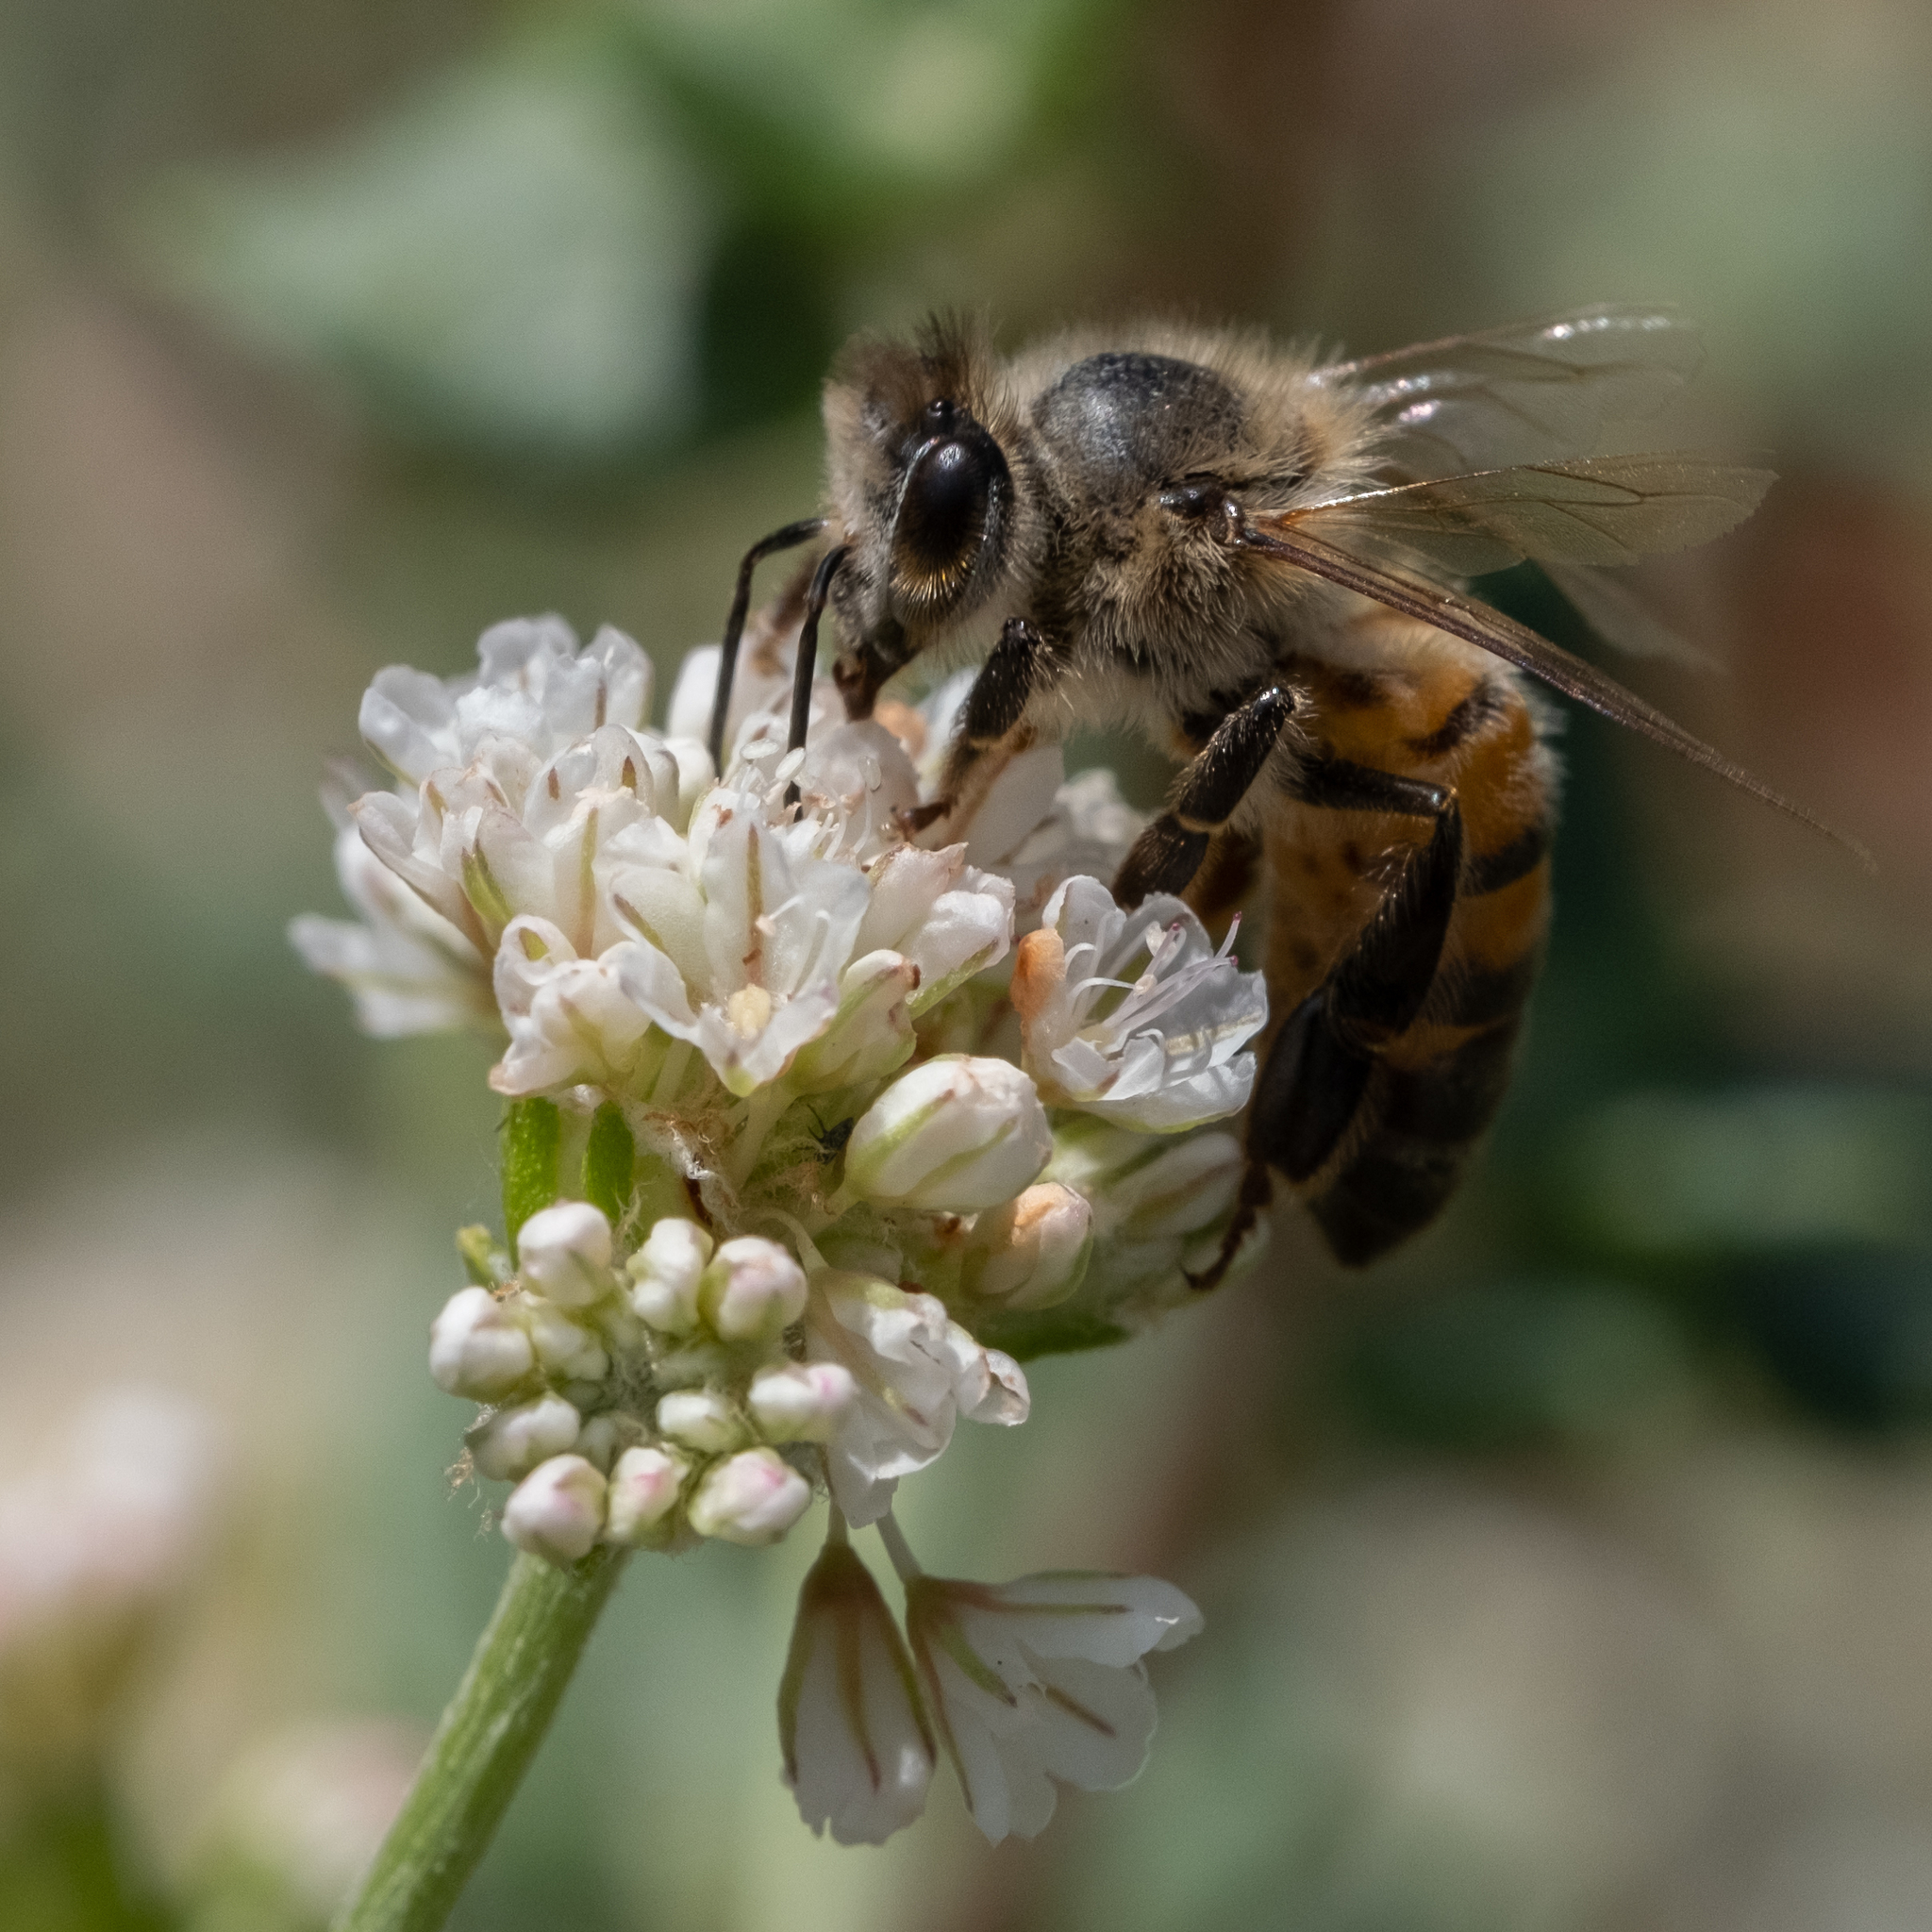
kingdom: Animalia
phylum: Arthropoda
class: Insecta
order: Hymenoptera
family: Apidae
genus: Apis
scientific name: Apis mellifera
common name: Honey bee
